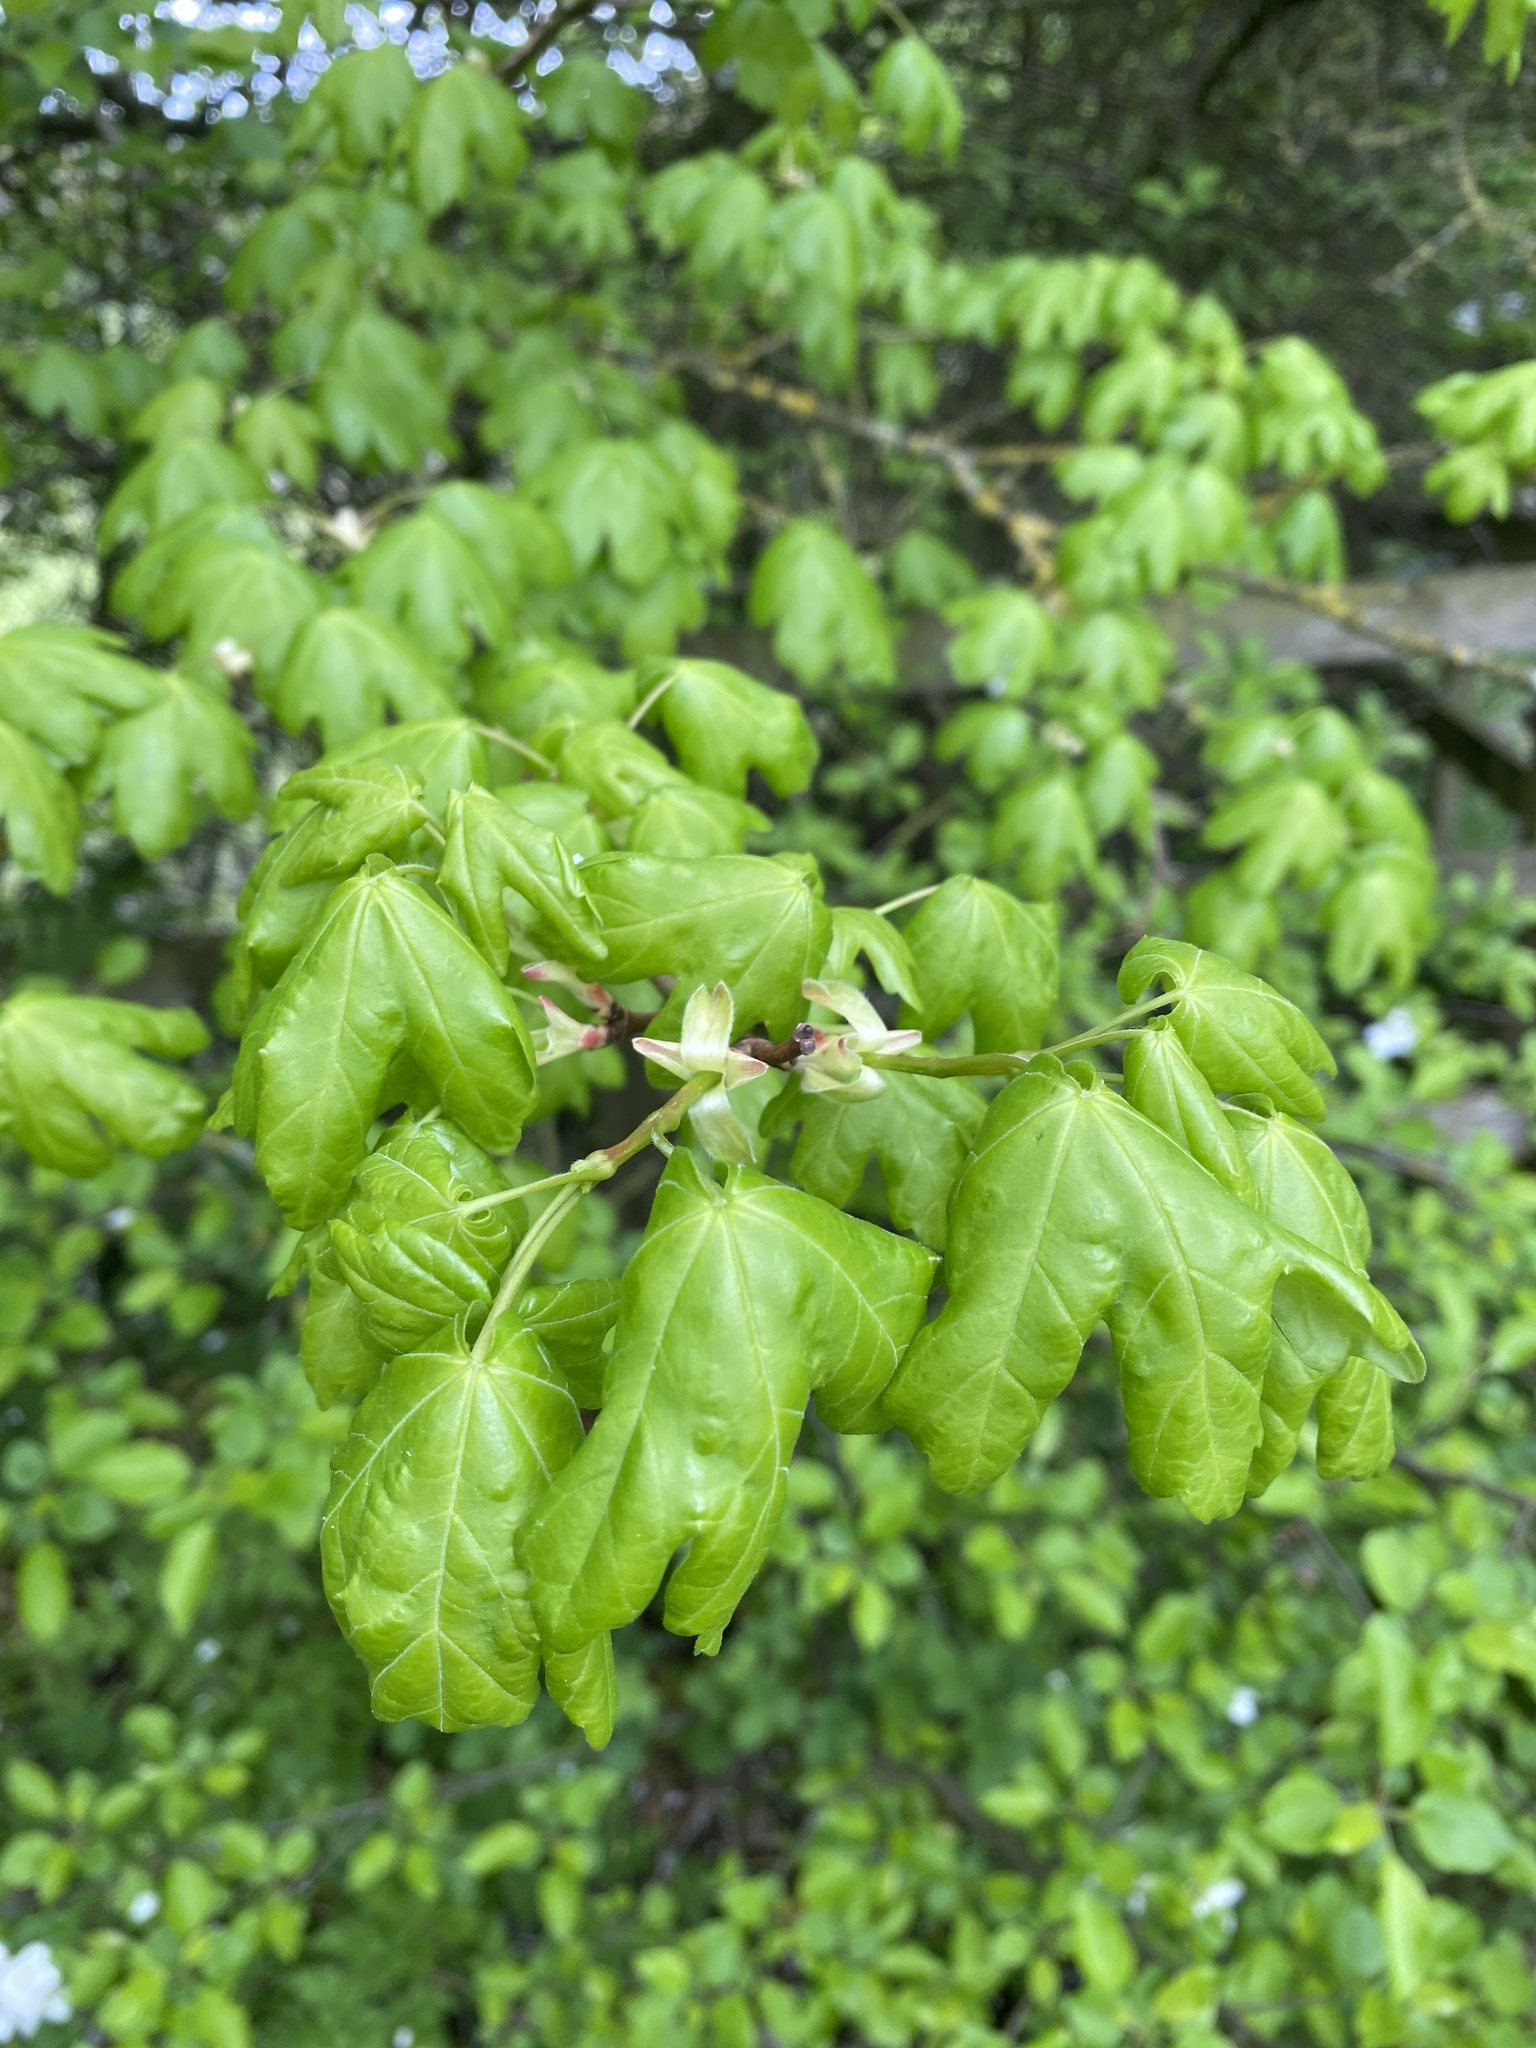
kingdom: Plantae
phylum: Tracheophyta
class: Magnoliopsida
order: Sapindales
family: Sapindaceae
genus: Acer
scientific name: Acer campestre
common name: Field maple
